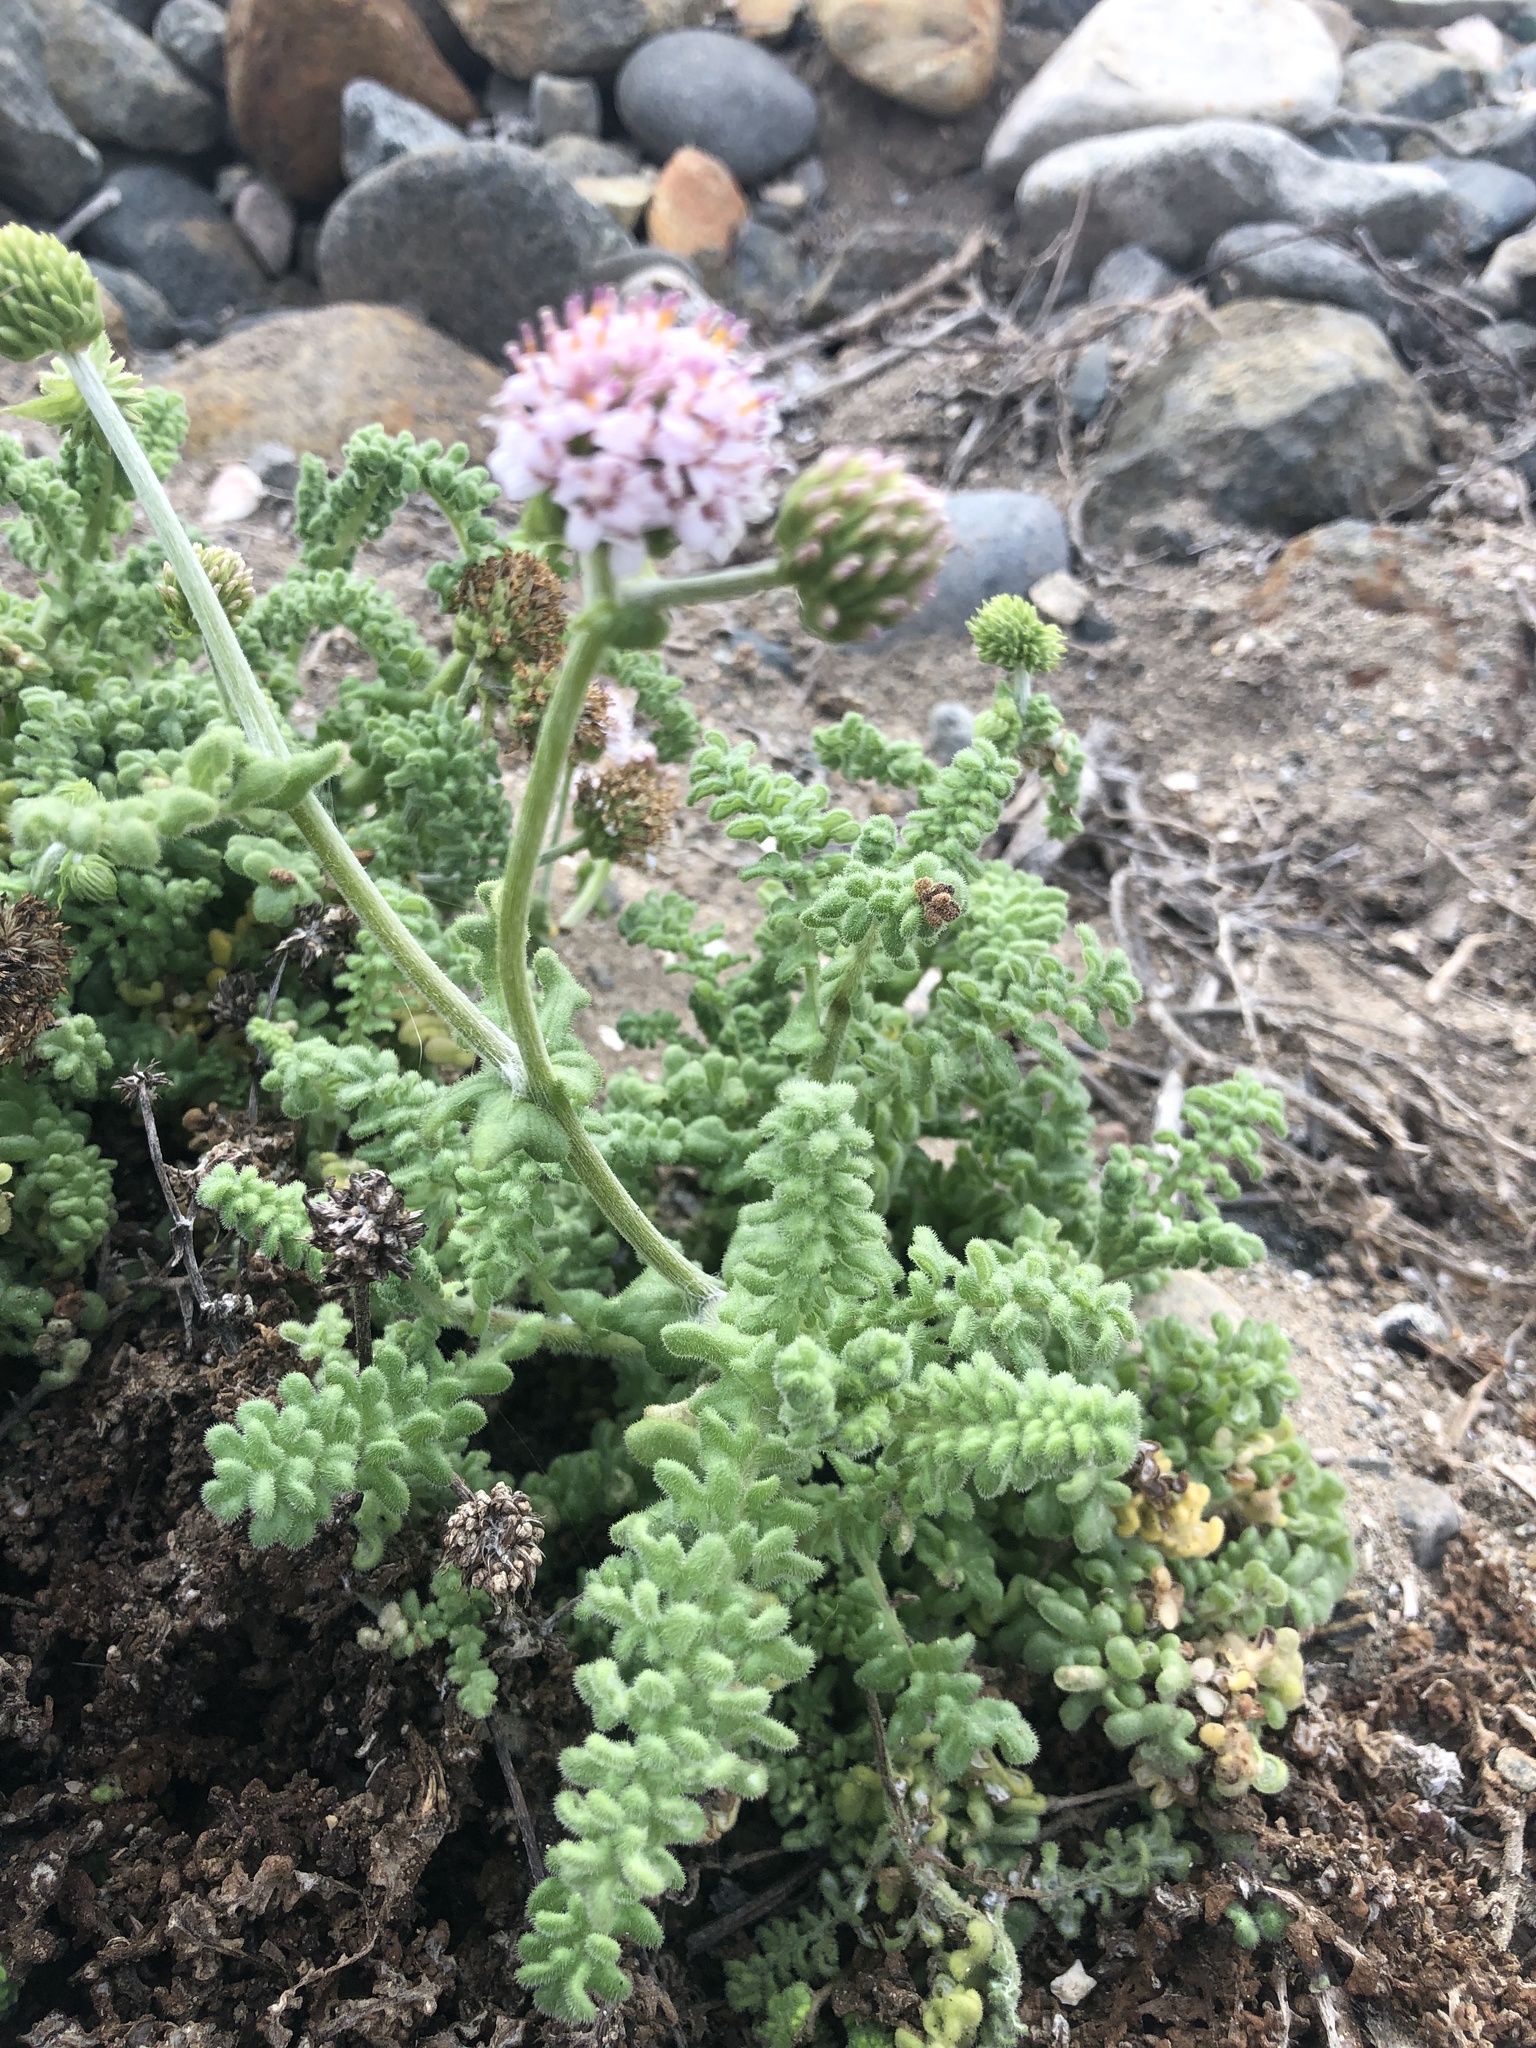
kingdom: Plantae
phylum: Tracheophyta
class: Magnoliopsida
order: Asterales
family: Asteraceae
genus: Polyachyrus
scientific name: Polyachyrus poeppigii
